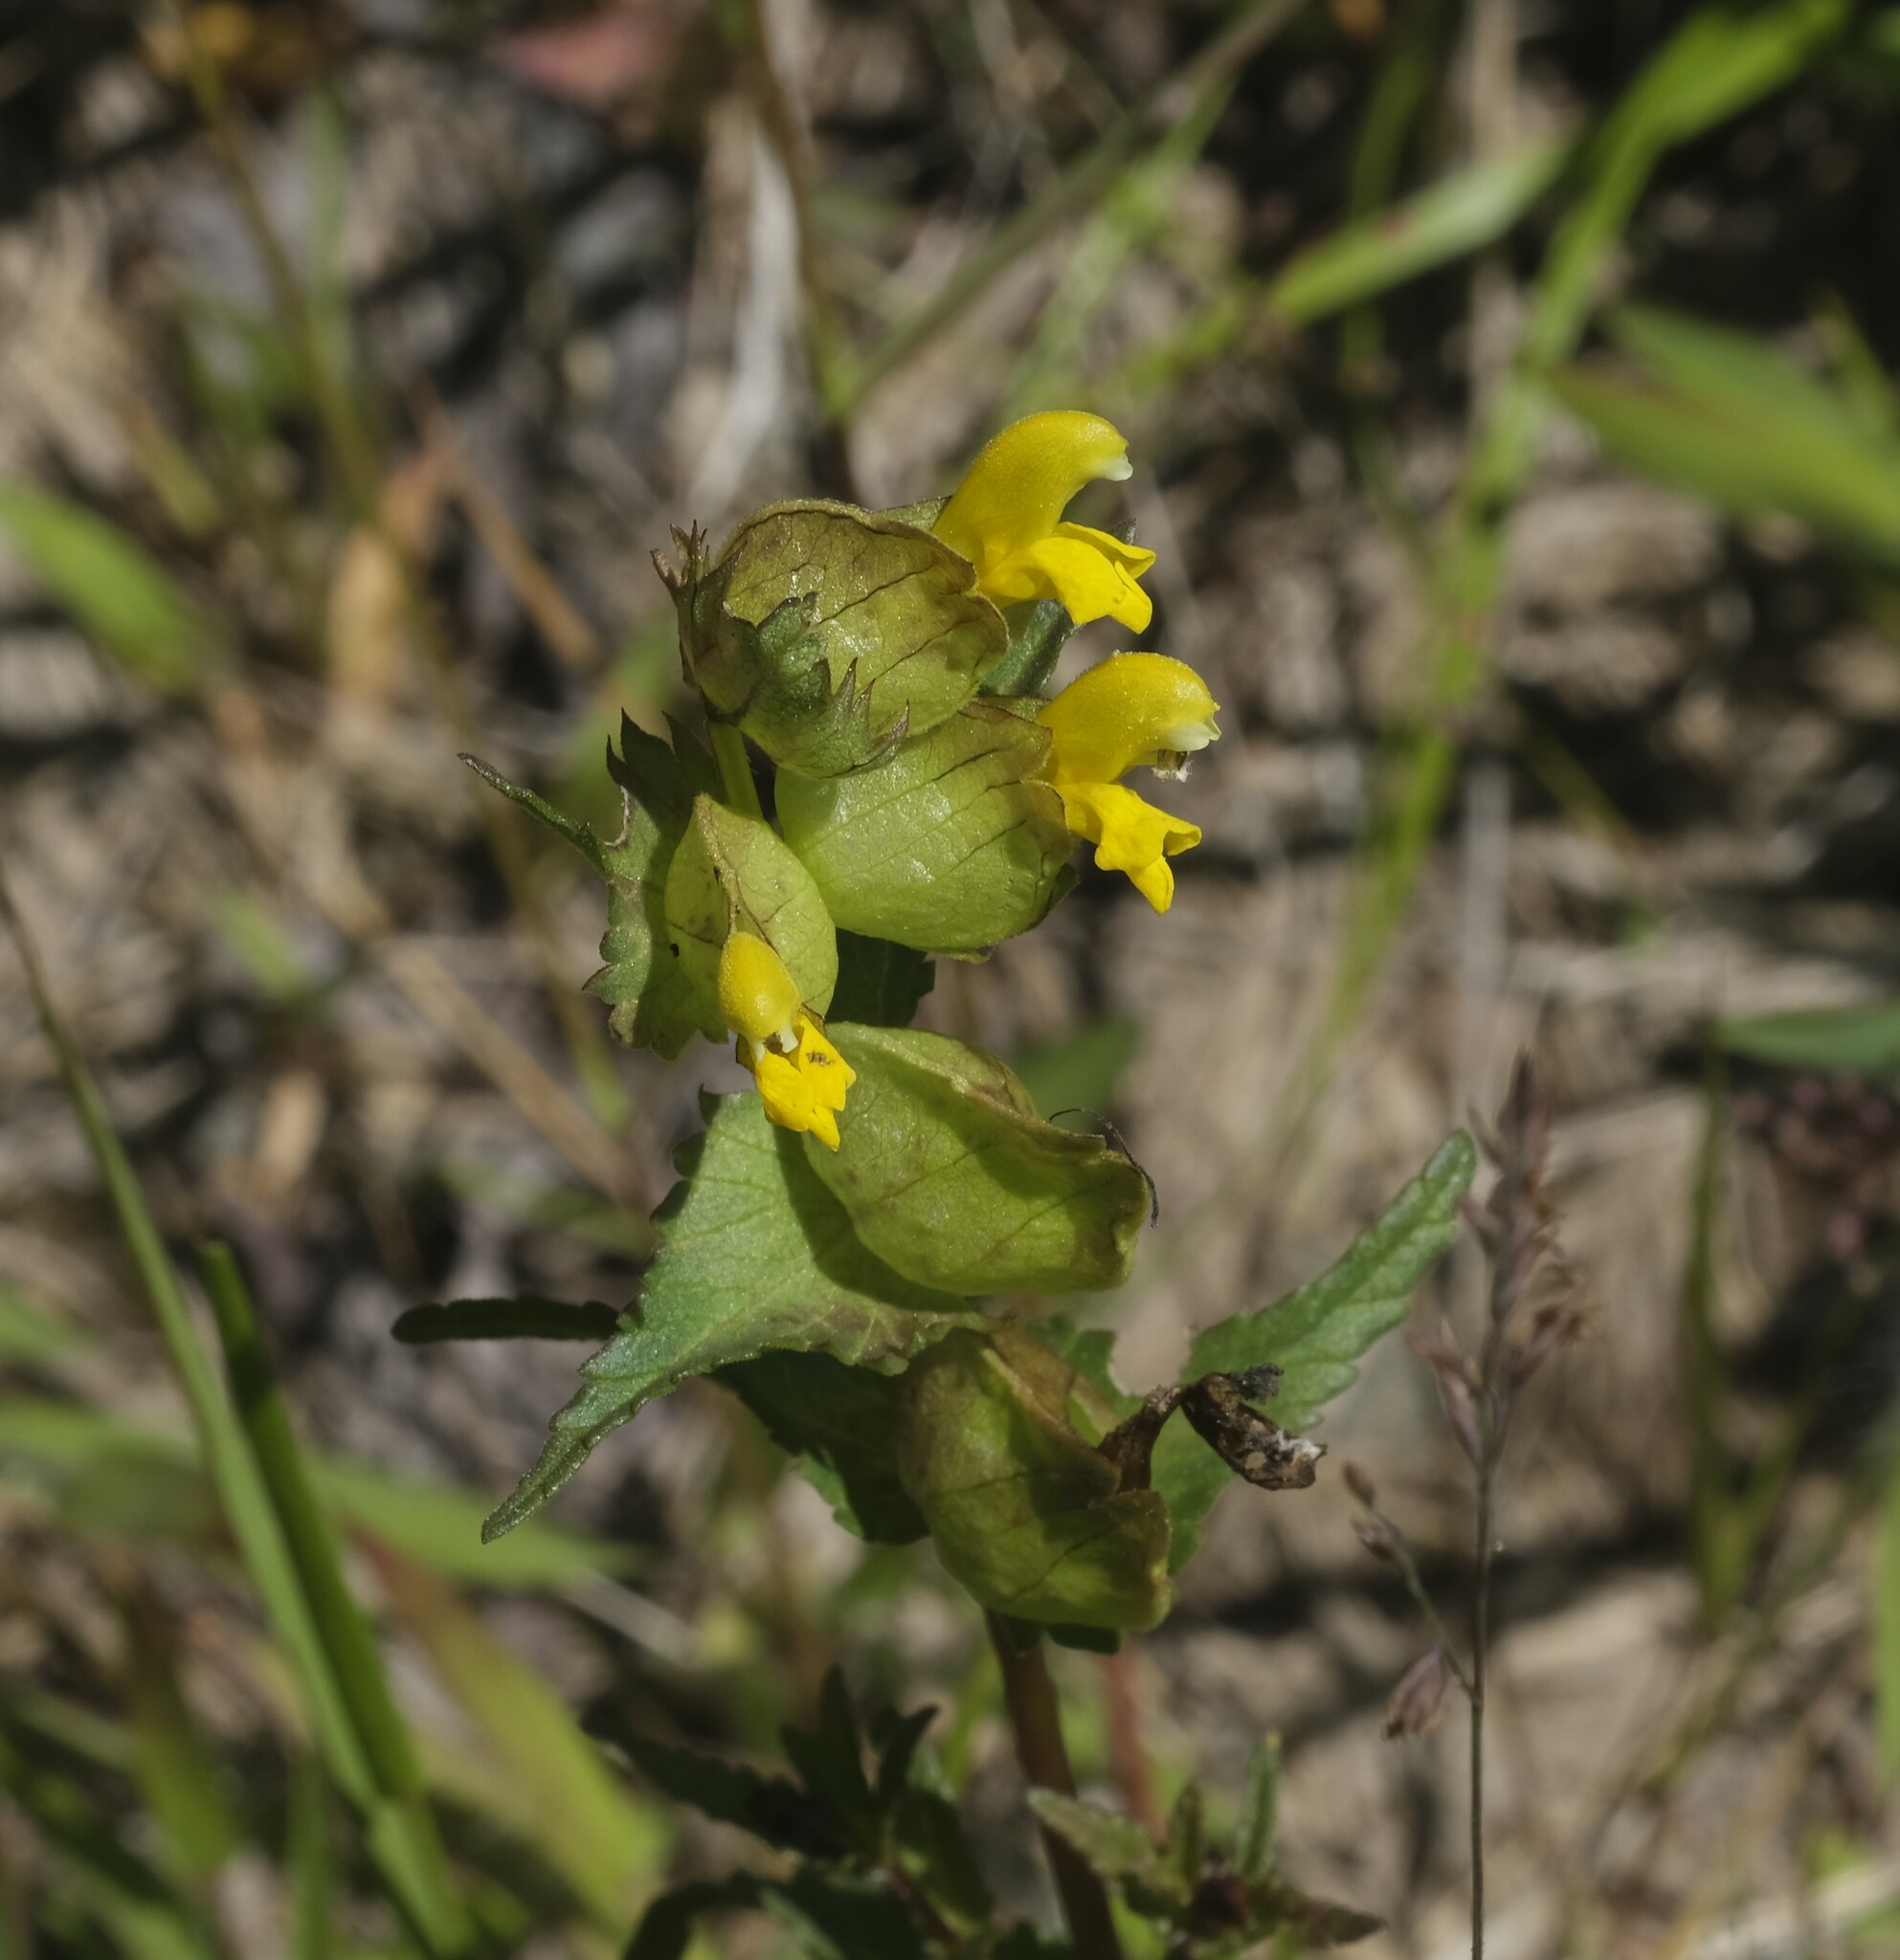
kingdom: Plantae
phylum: Tracheophyta
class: Magnoliopsida
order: Lamiales
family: Orobanchaceae
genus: Rhinanthus
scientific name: Rhinanthus minor
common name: Yellow-rattle
